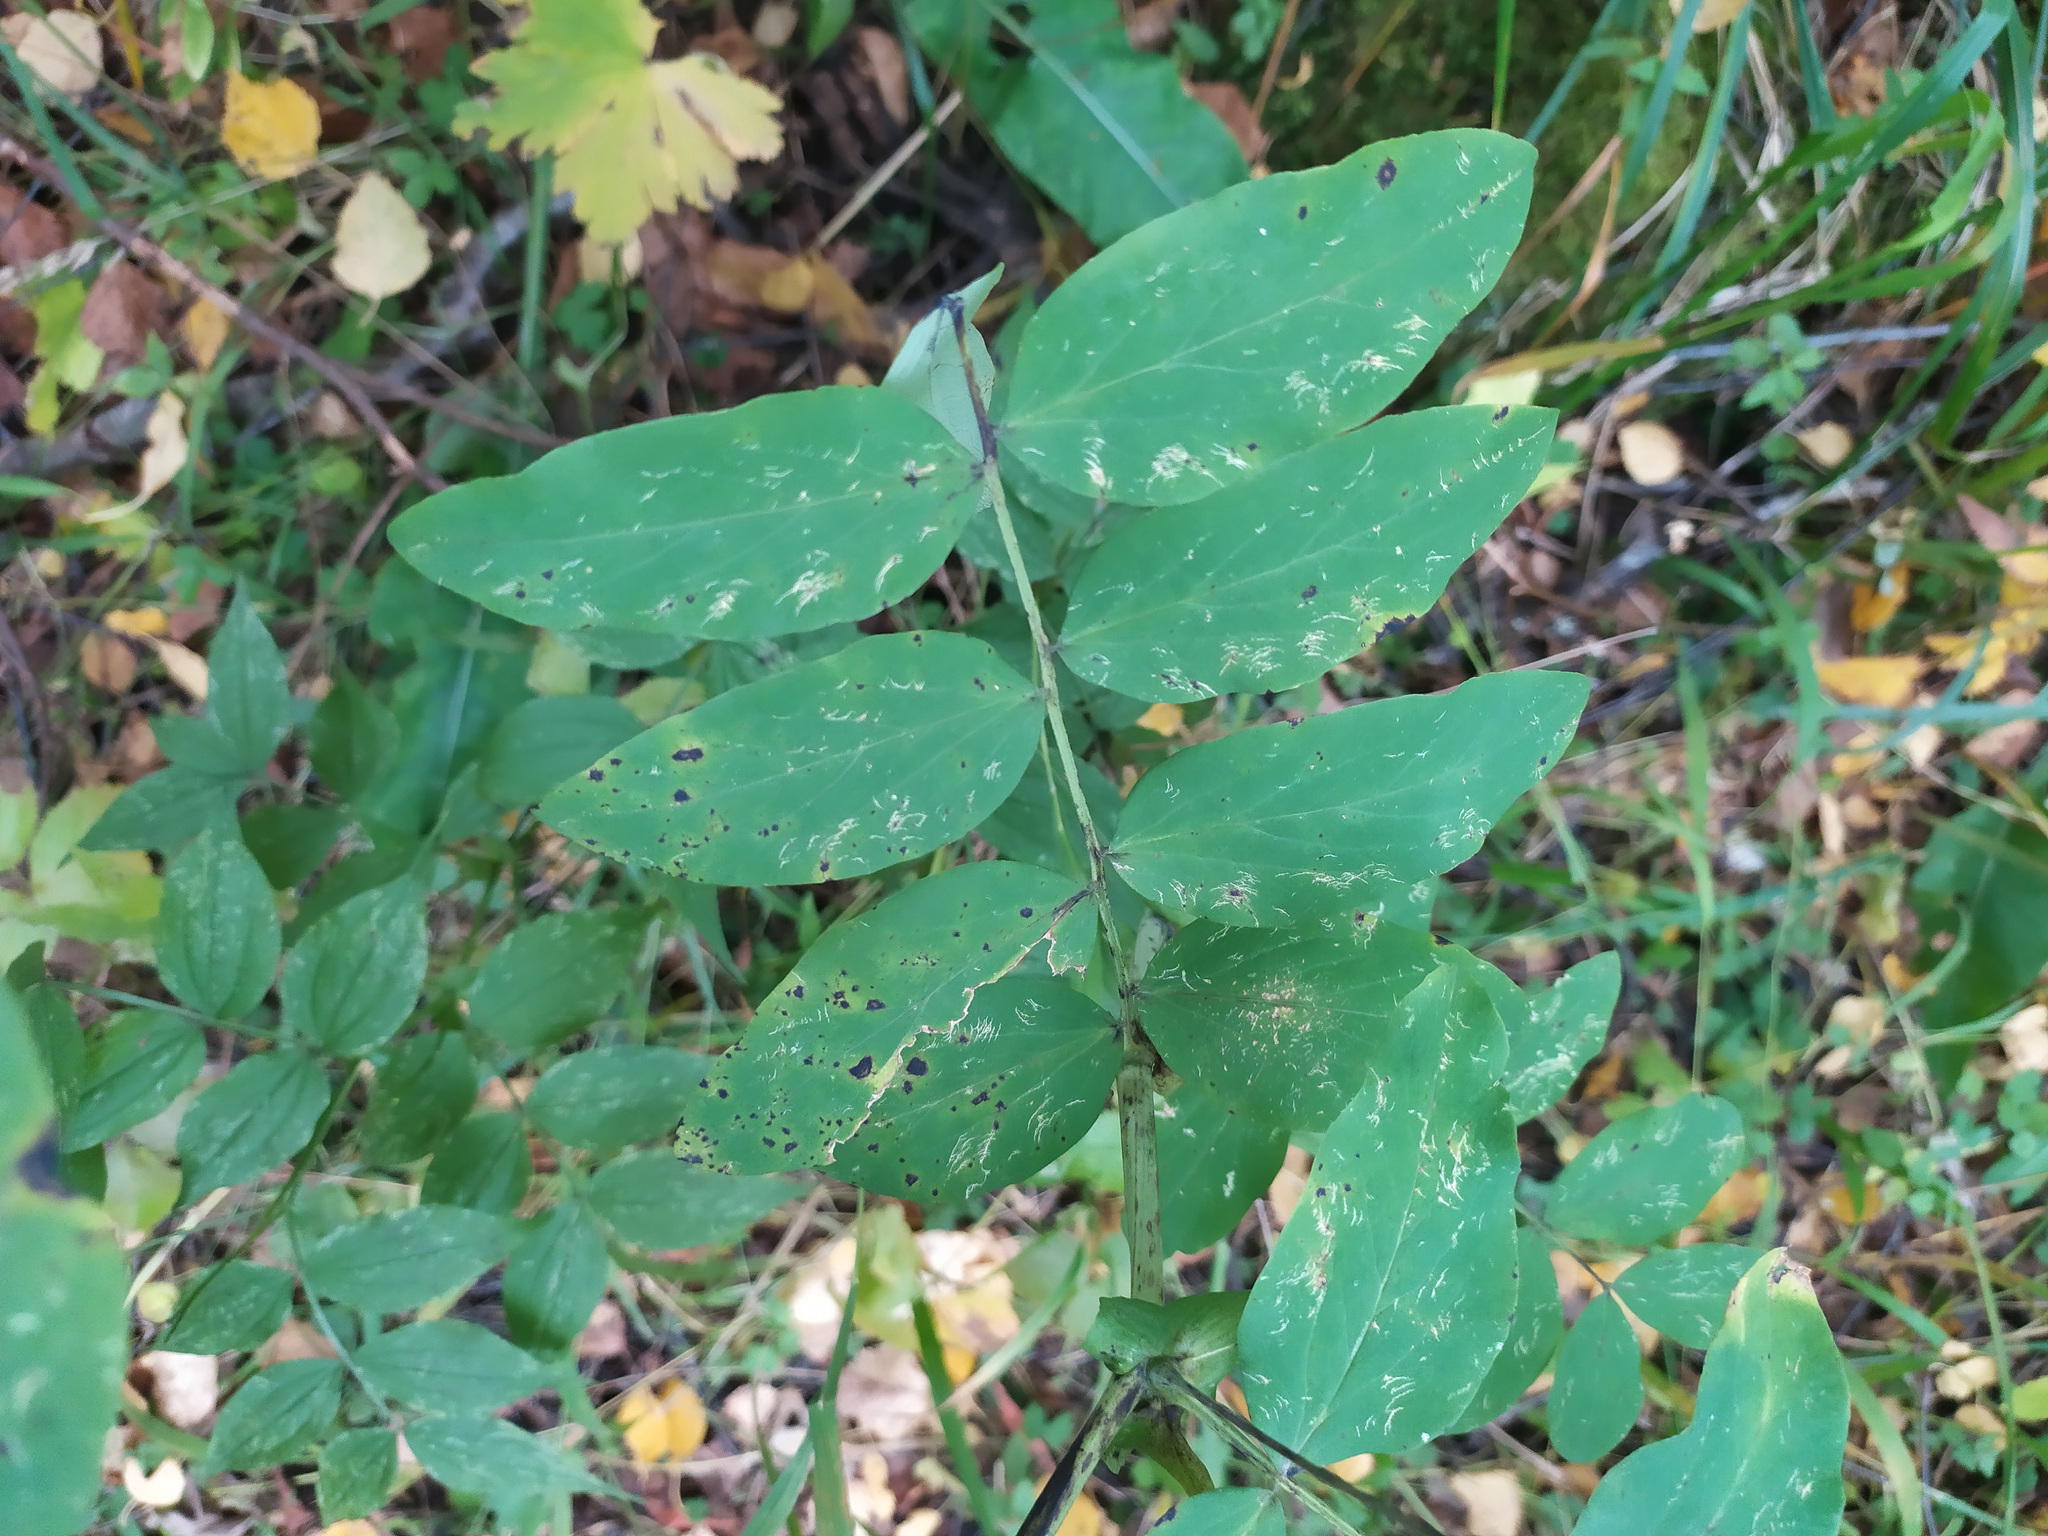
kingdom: Plantae
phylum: Tracheophyta
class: Magnoliopsida
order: Fabales
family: Fabaceae
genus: Lathyrus
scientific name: Lathyrus gmelinii
